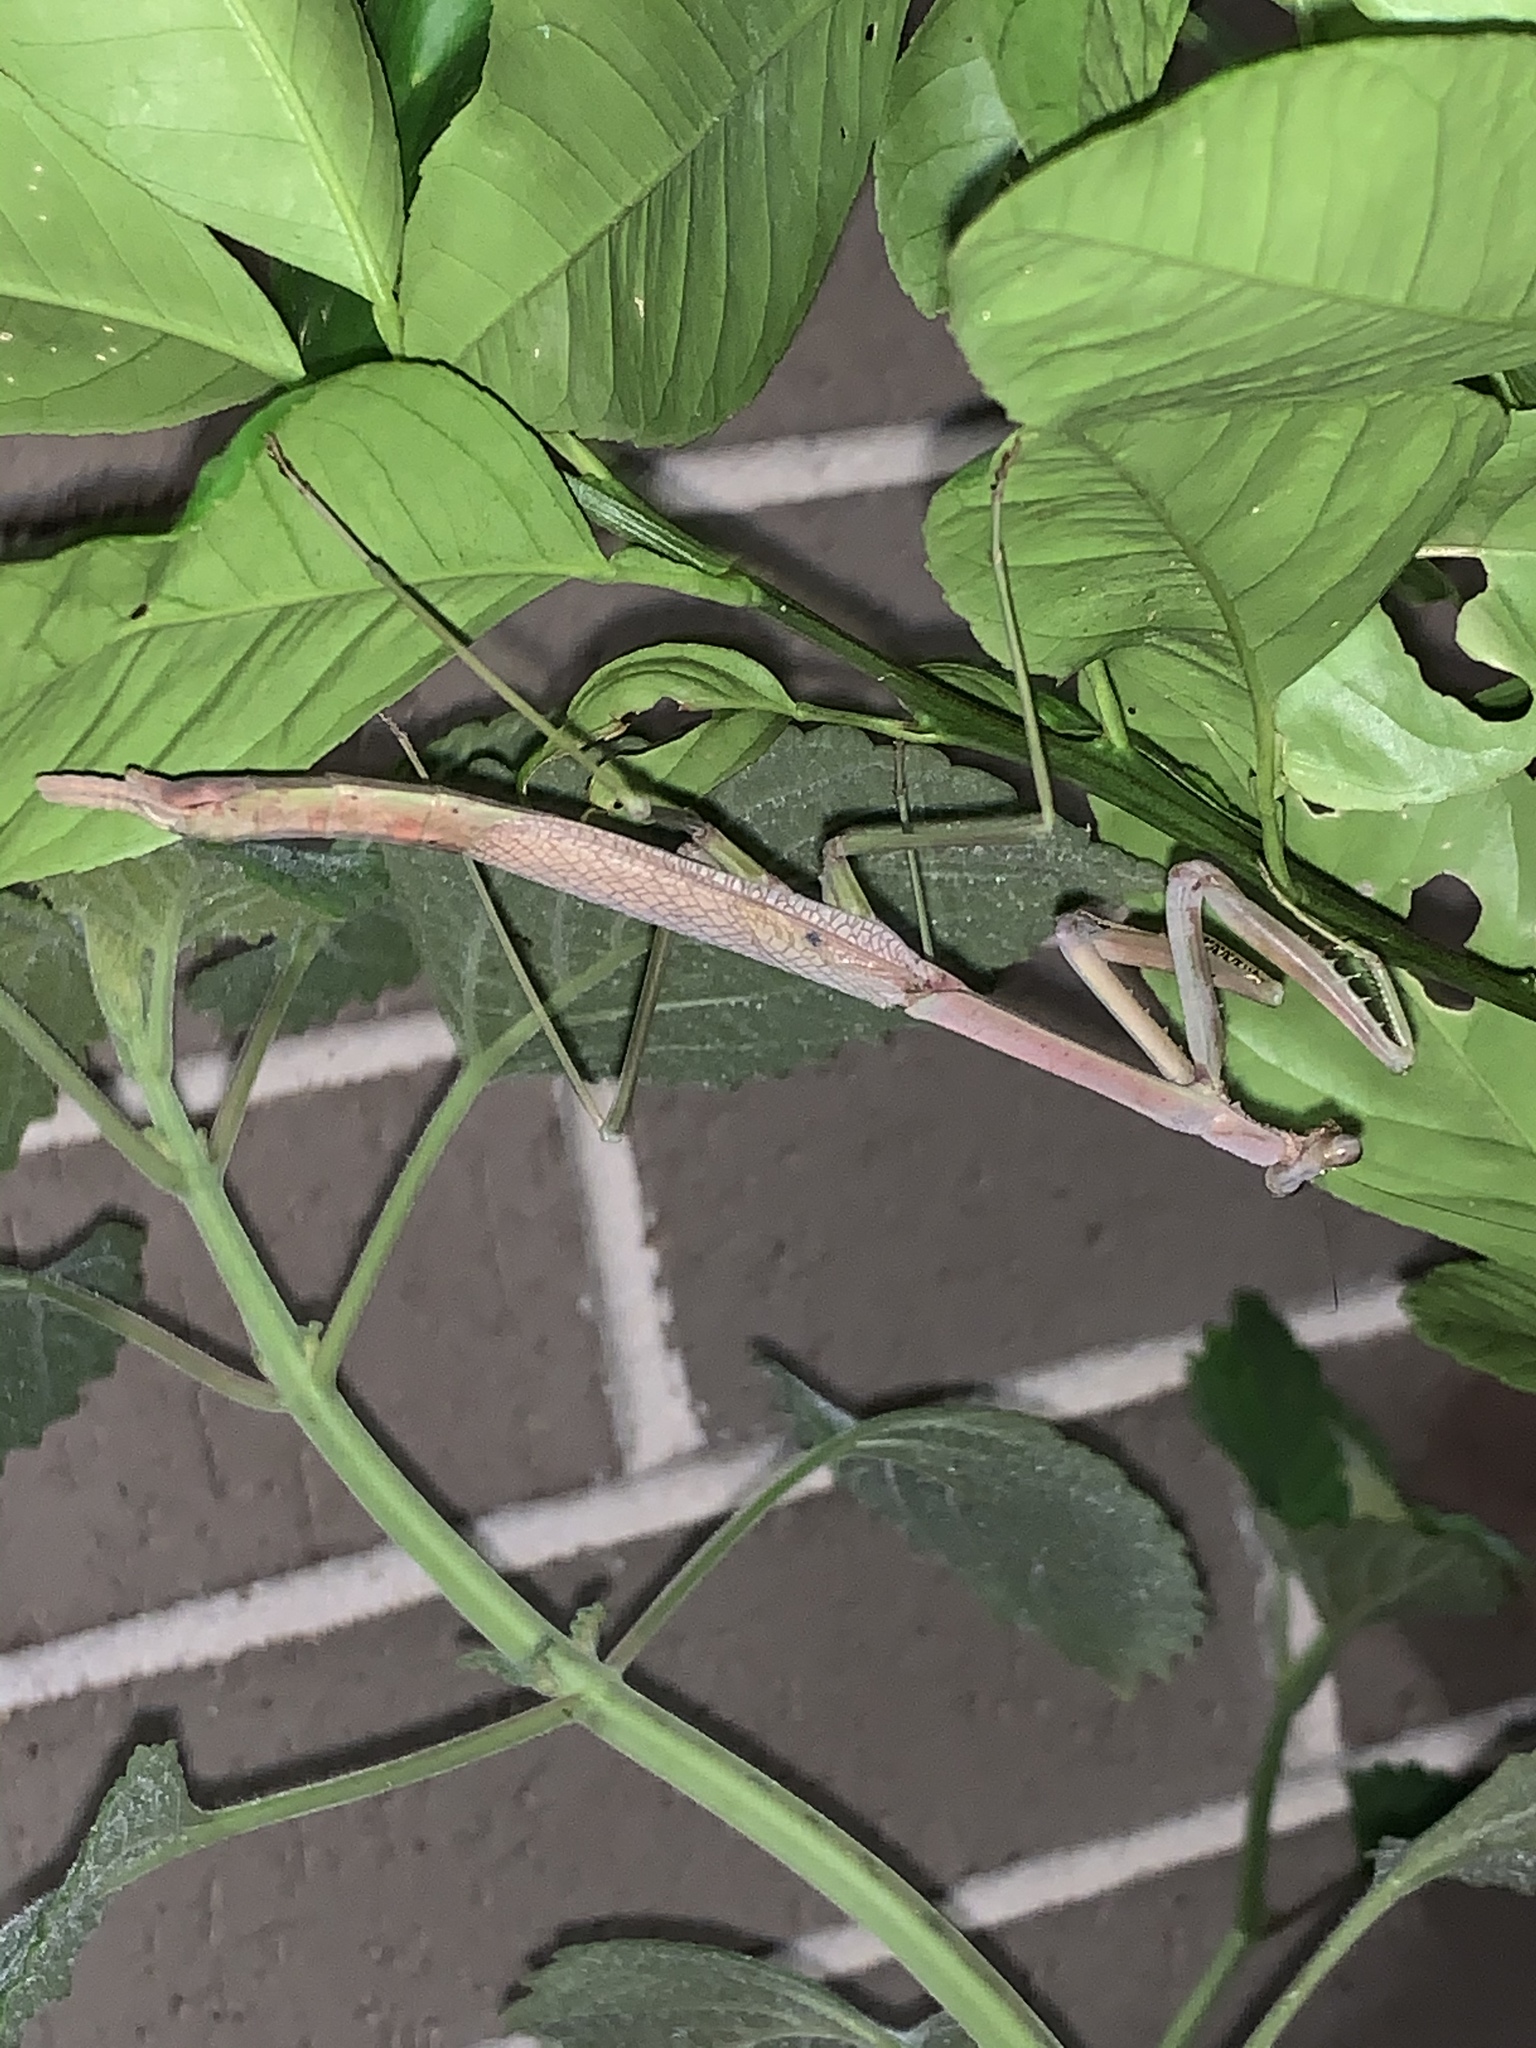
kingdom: Animalia
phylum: Arthropoda
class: Insecta
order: Mantodea
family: Mantidae
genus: Archimantis
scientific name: Archimantis latistyla
